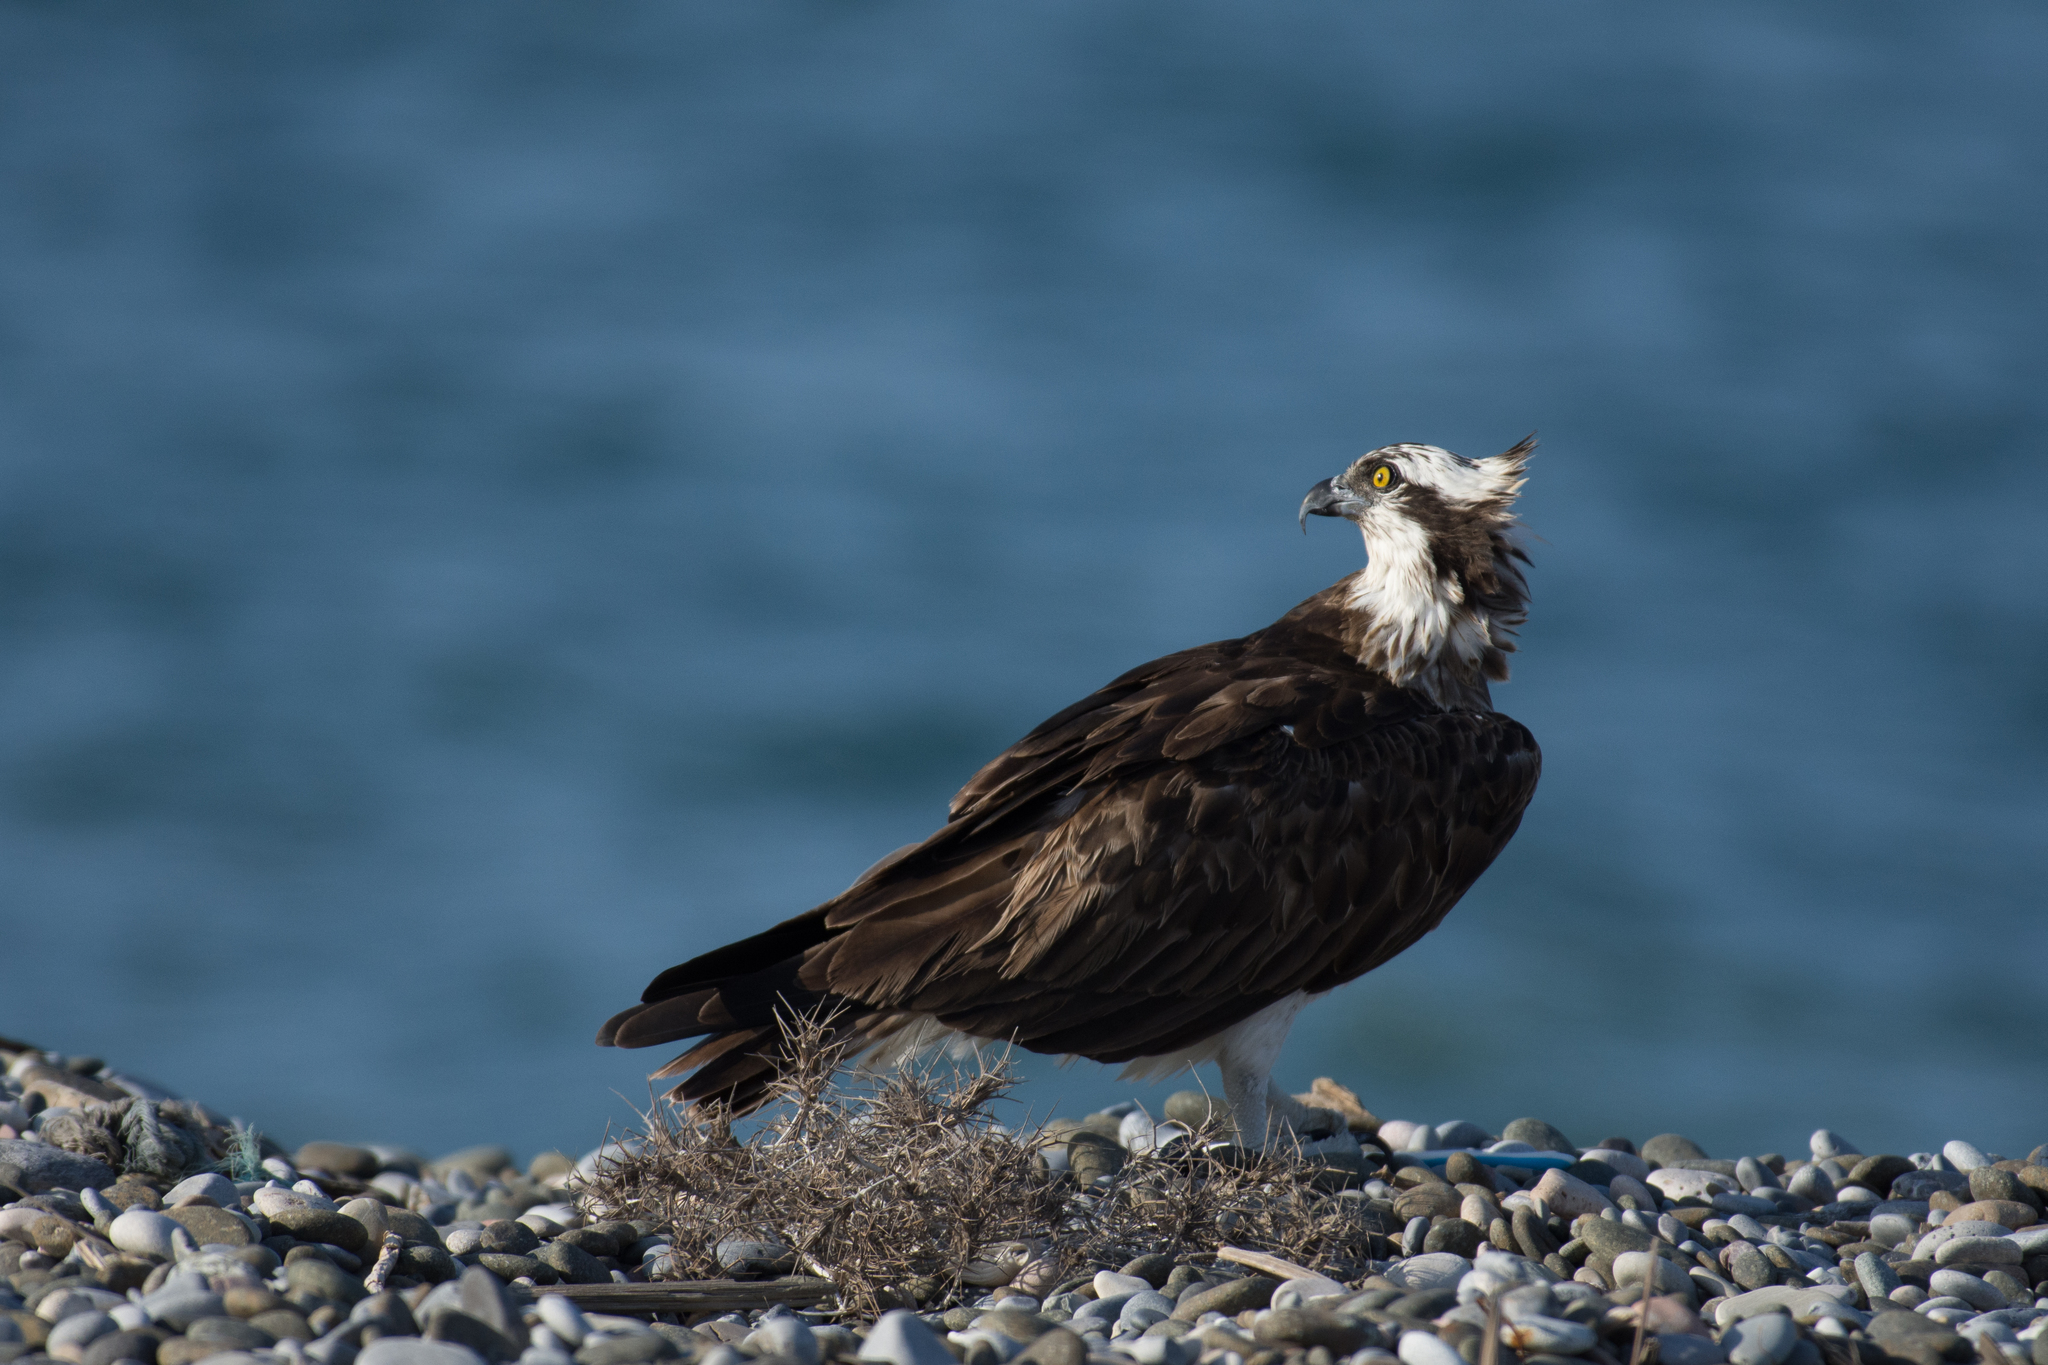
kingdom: Animalia
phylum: Chordata
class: Aves
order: Accipitriformes
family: Pandionidae
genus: Pandion
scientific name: Pandion haliaetus
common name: Osprey
